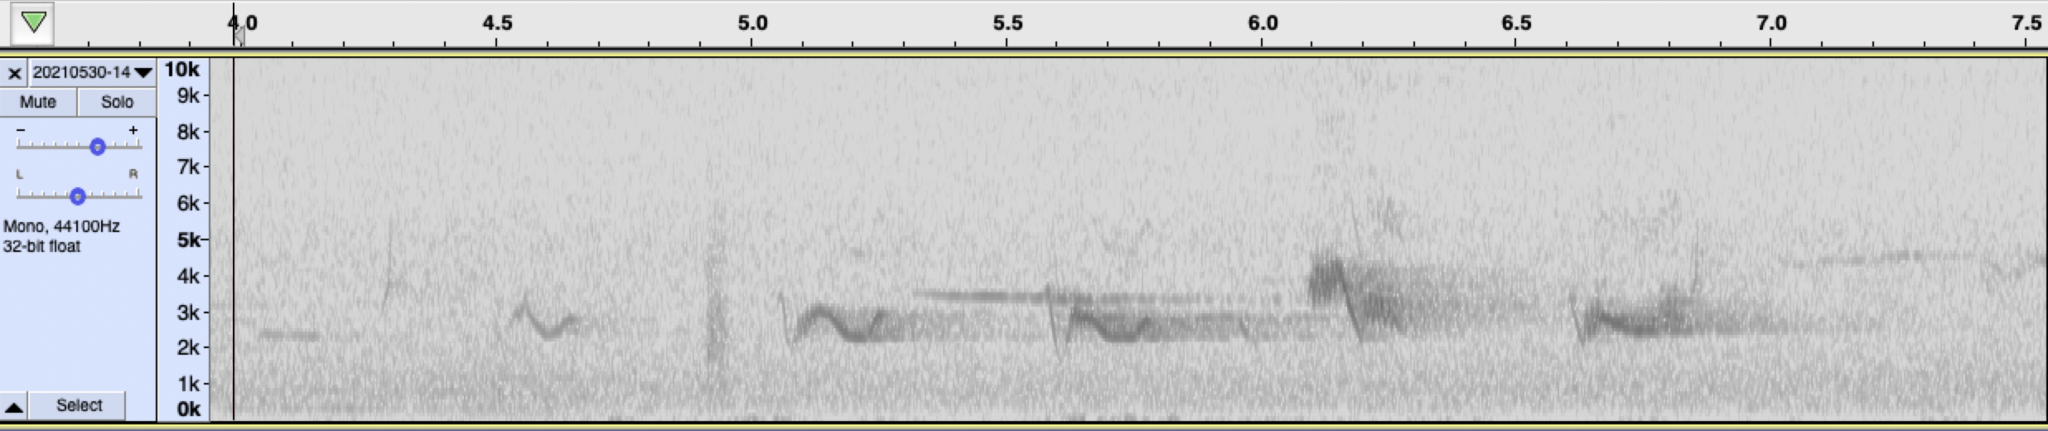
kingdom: Animalia
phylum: Chordata
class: Aves
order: Passeriformes
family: Cardinalidae
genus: Piranga
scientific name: Piranga ludoviciana
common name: Western tanager
